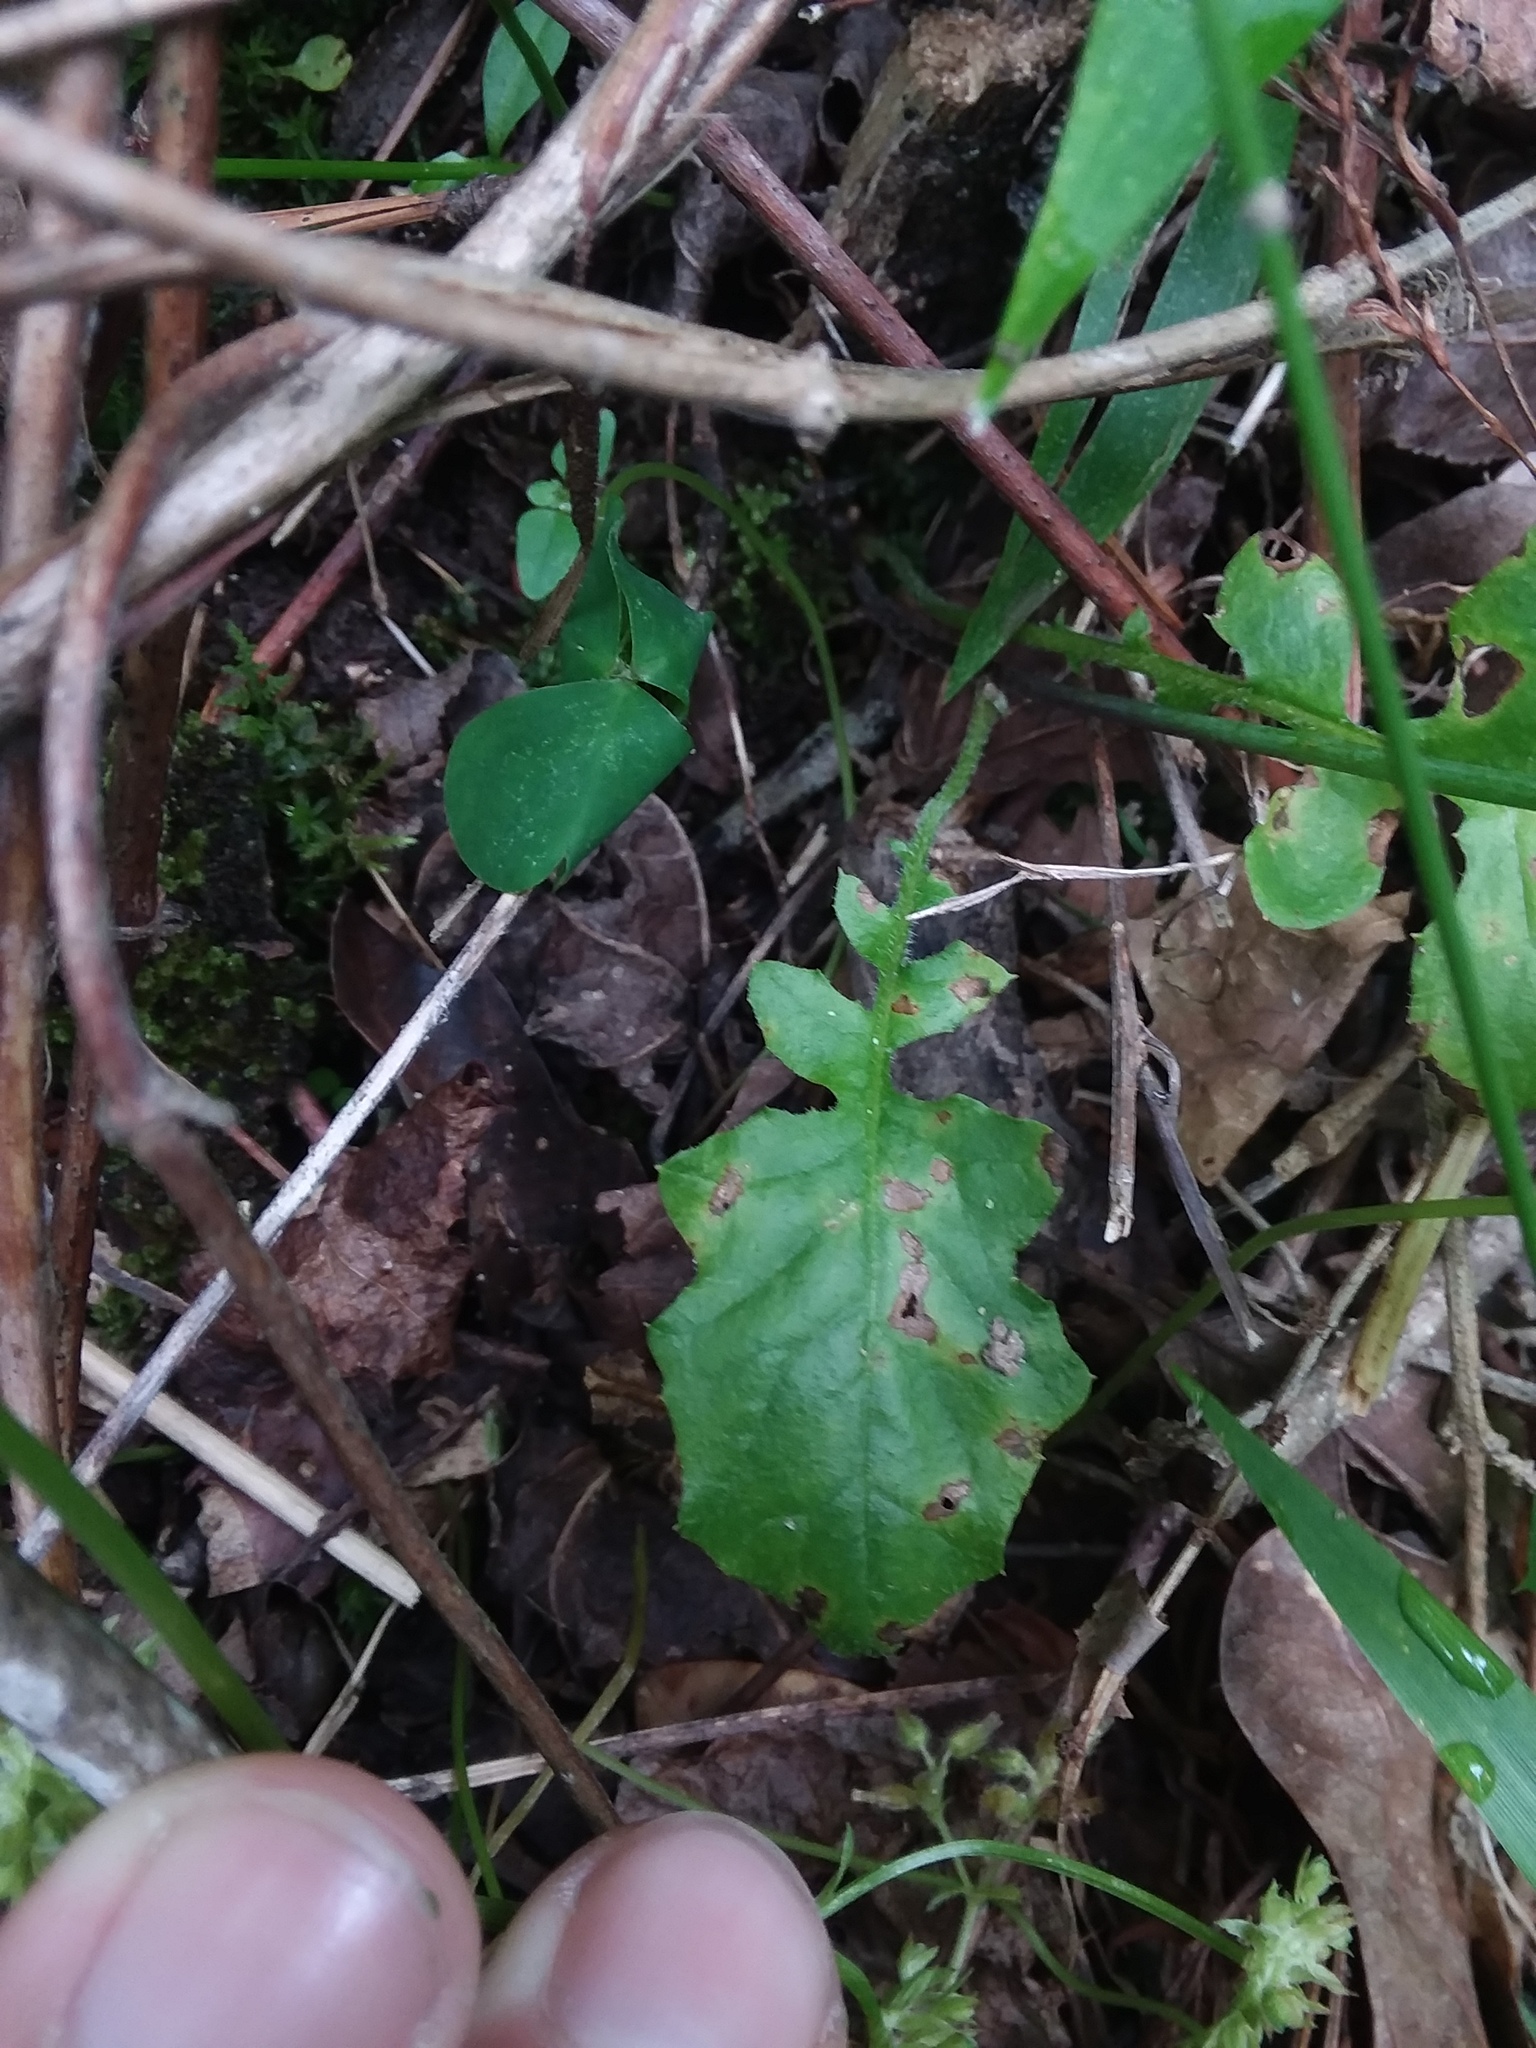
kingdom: Plantae
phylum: Tracheophyta
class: Magnoliopsida
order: Asterales
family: Asteraceae
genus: Youngia
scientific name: Youngia japonica
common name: Oriental false hawksbeard
